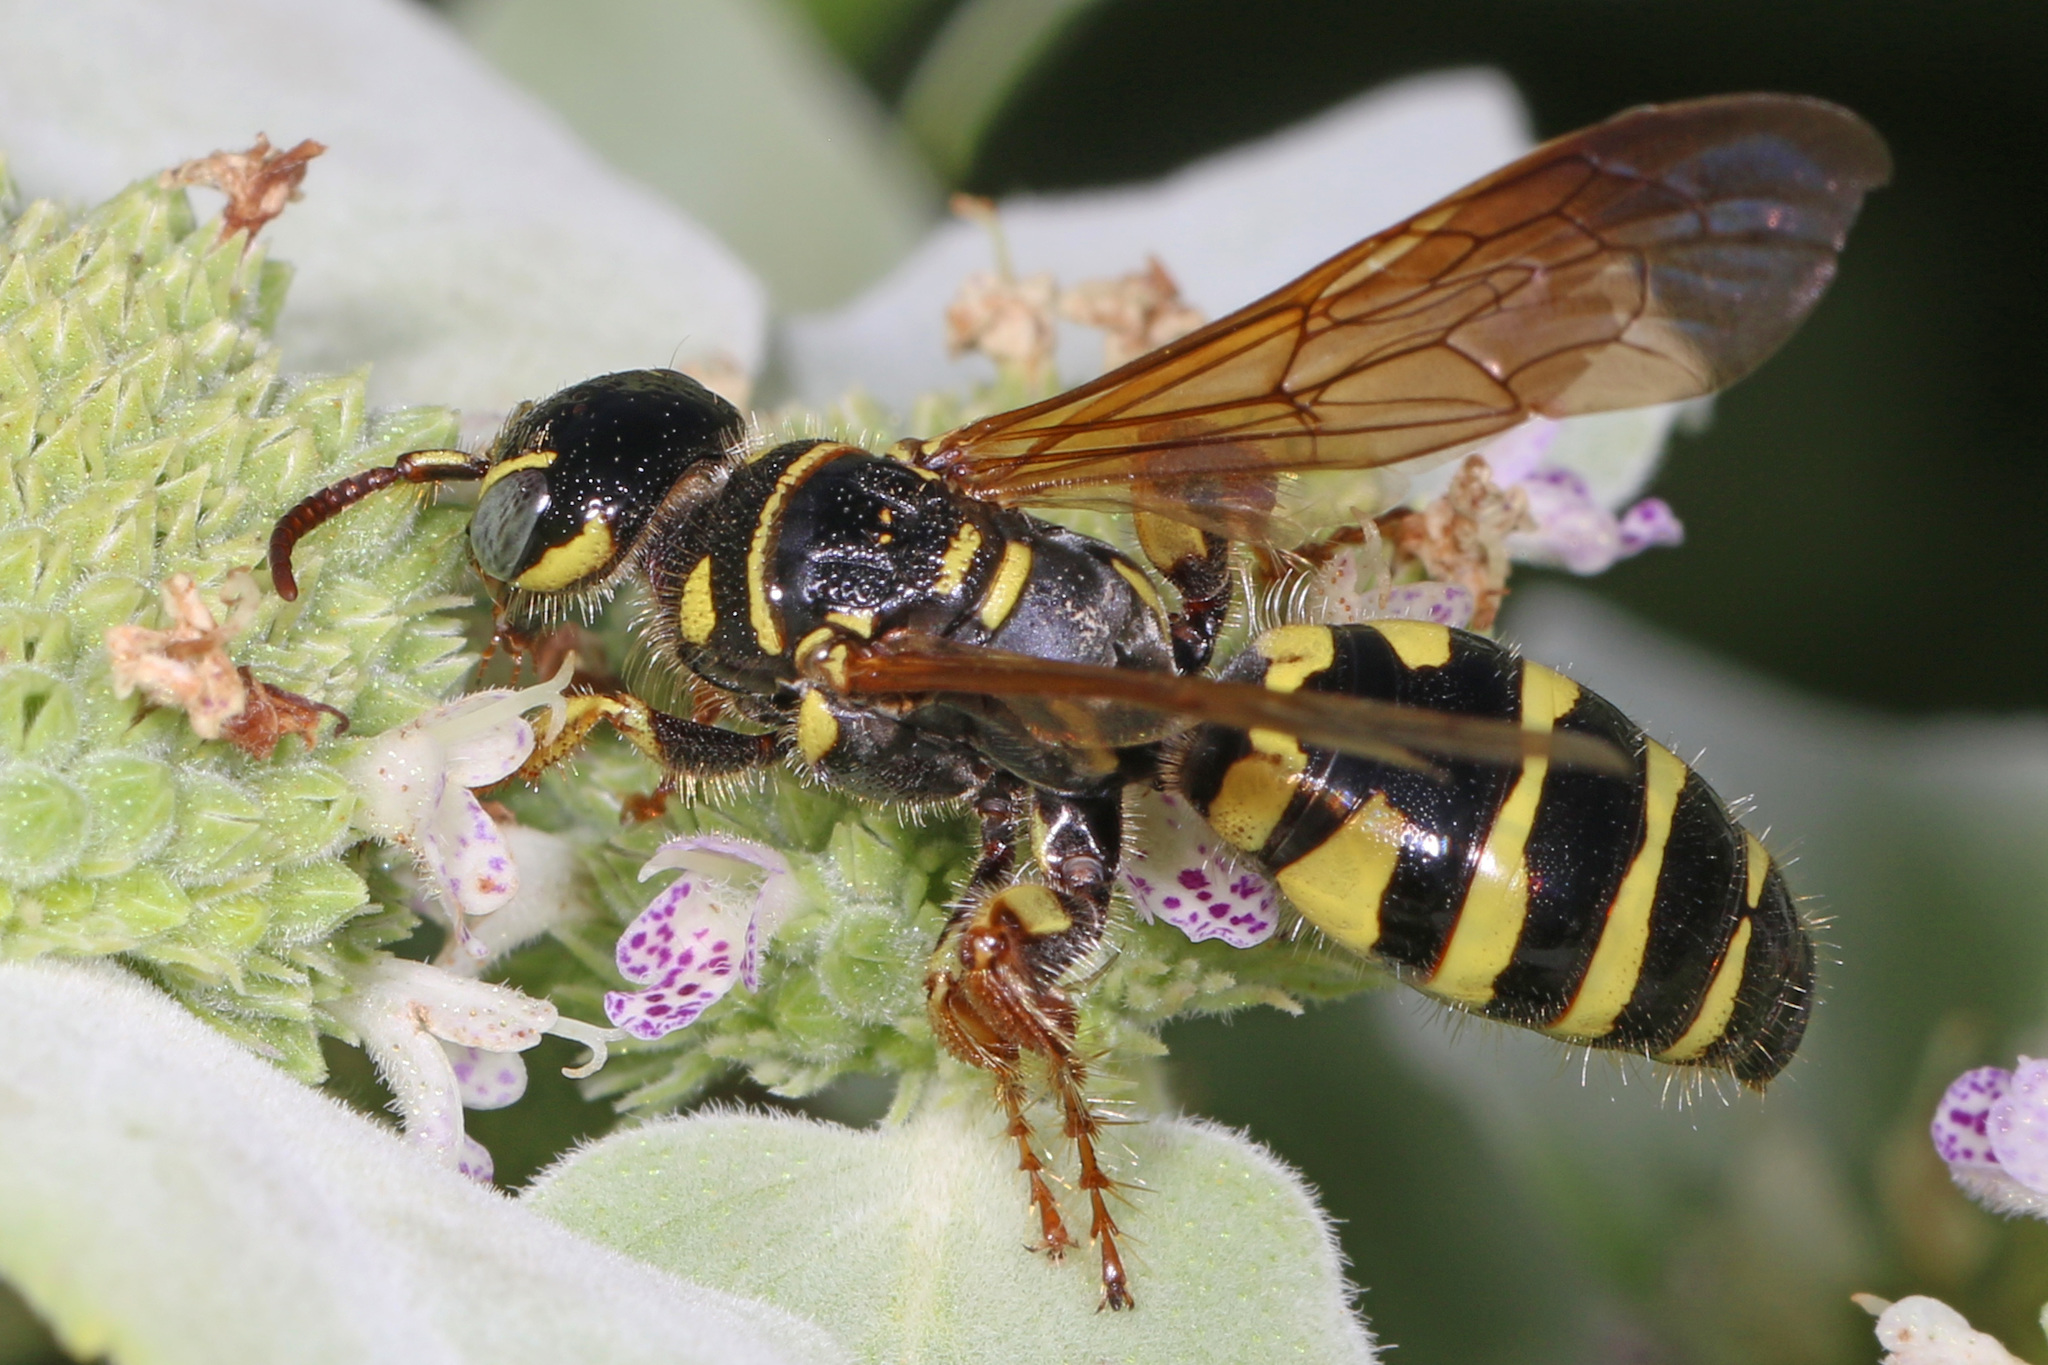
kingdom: Animalia
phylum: Arthropoda
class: Insecta
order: Hymenoptera
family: Tiphiidae
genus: Myzinum
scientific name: Myzinum quinquecinctum
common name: Five-banded thynnid wasp
